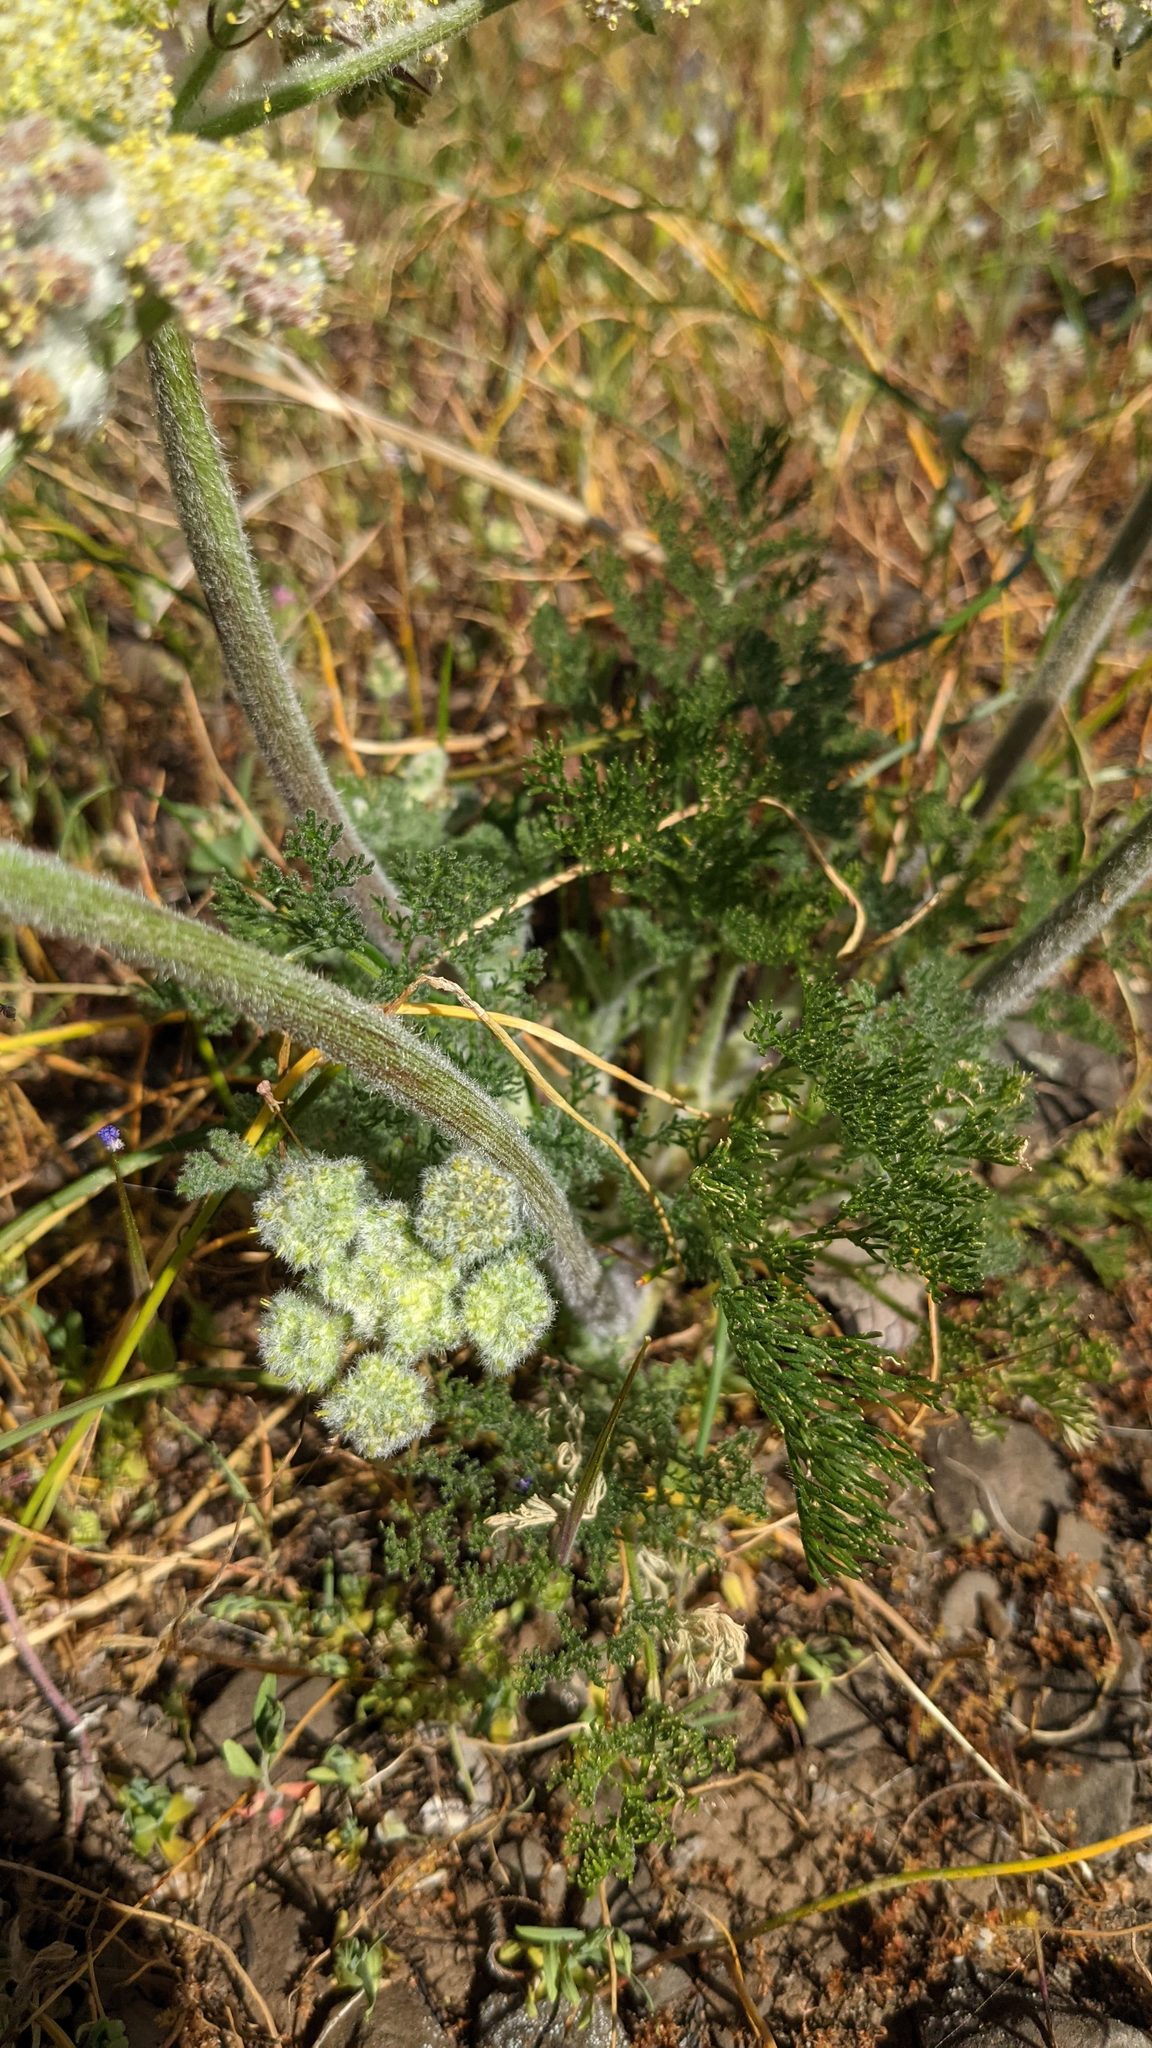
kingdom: Plantae
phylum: Tracheophyta
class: Magnoliopsida
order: Apiales
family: Apiaceae
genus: Lomatium
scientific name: Lomatium dasycarpum
